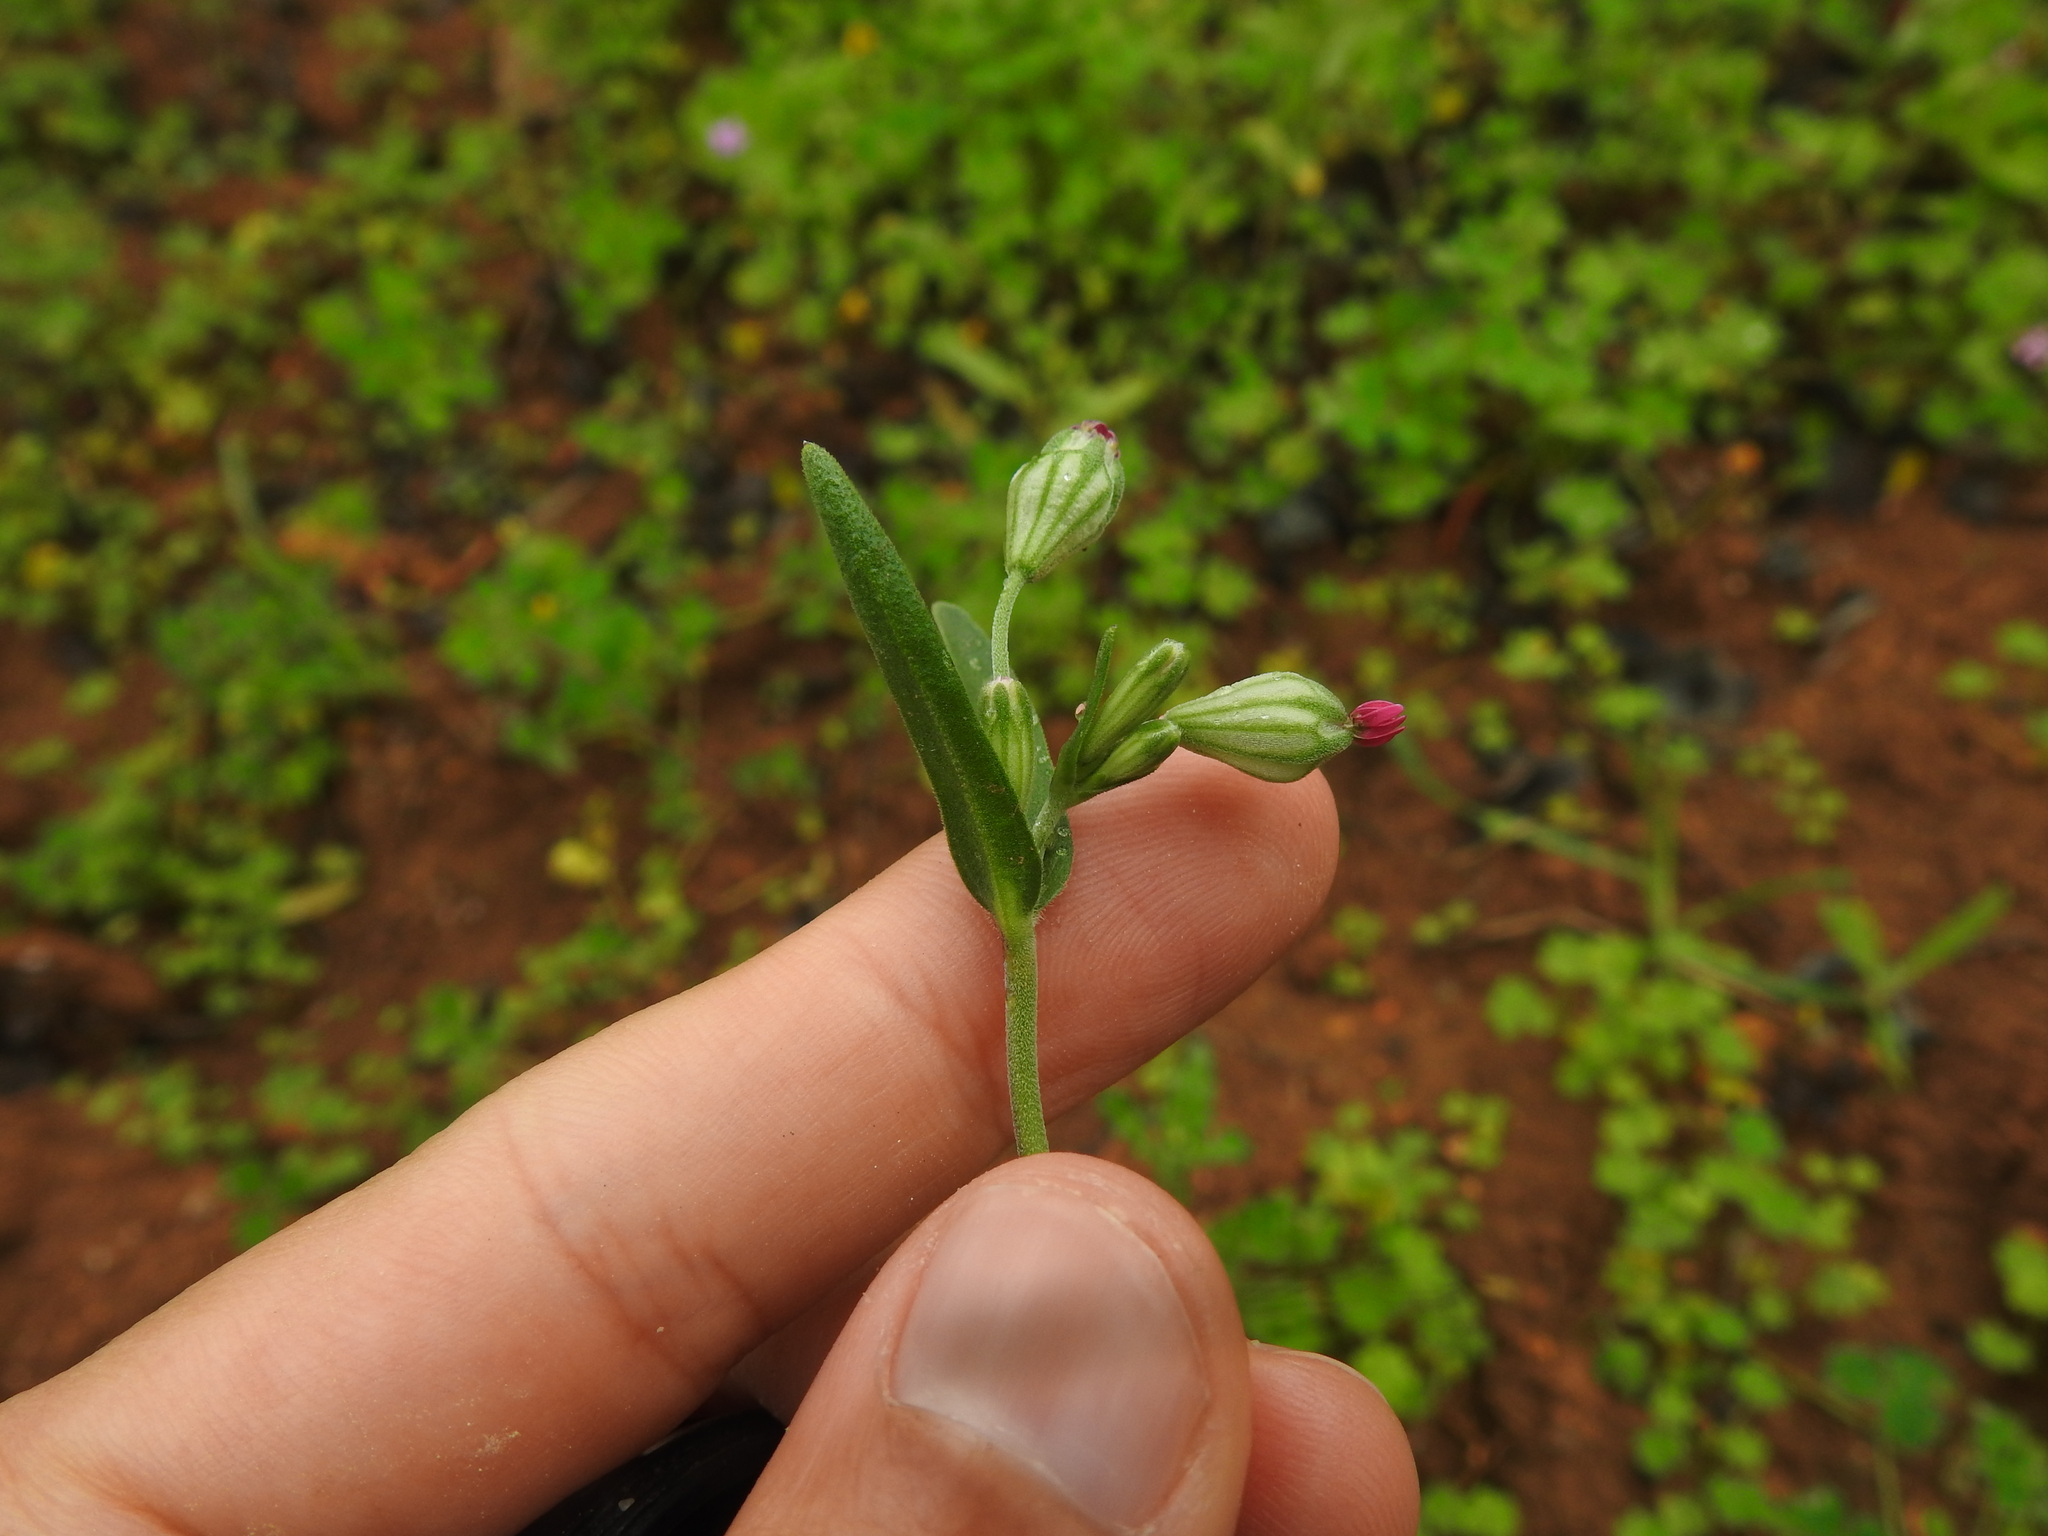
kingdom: Plantae
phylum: Tracheophyta
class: Magnoliopsida
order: Caryophyllales
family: Caryophyllaceae
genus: Silene
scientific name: Silene rubella
